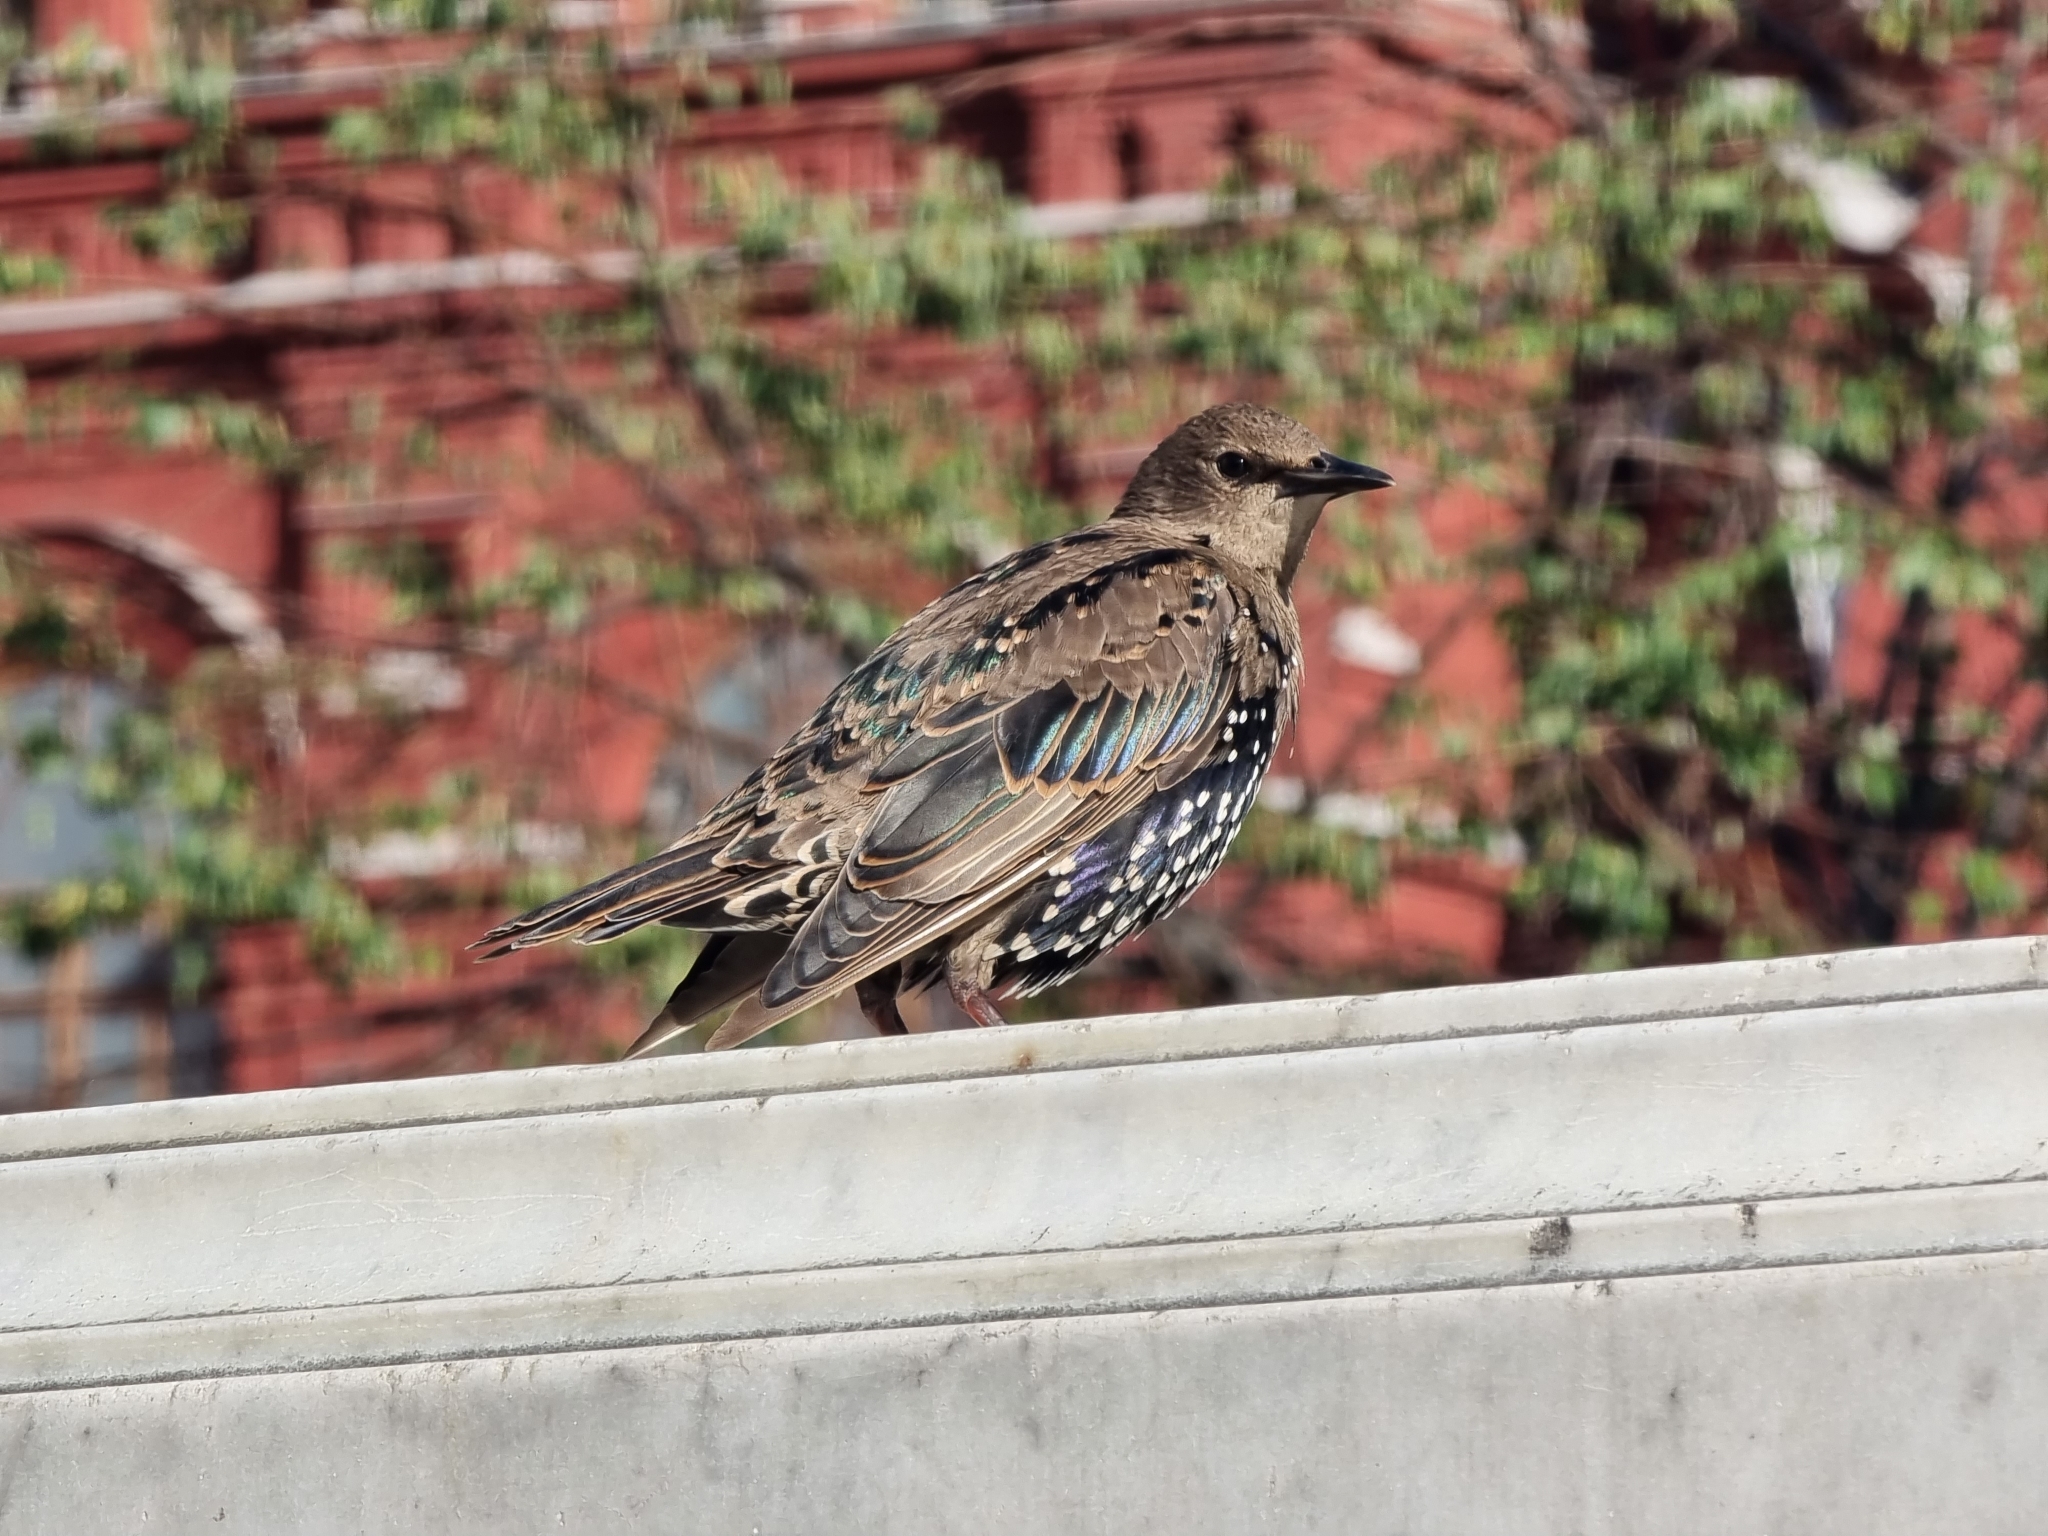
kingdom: Animalia
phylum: Chordata
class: Aves
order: Passeriformes
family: Sturnidae
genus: Sturnus
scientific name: Sturnus vulgaris
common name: Common starling
